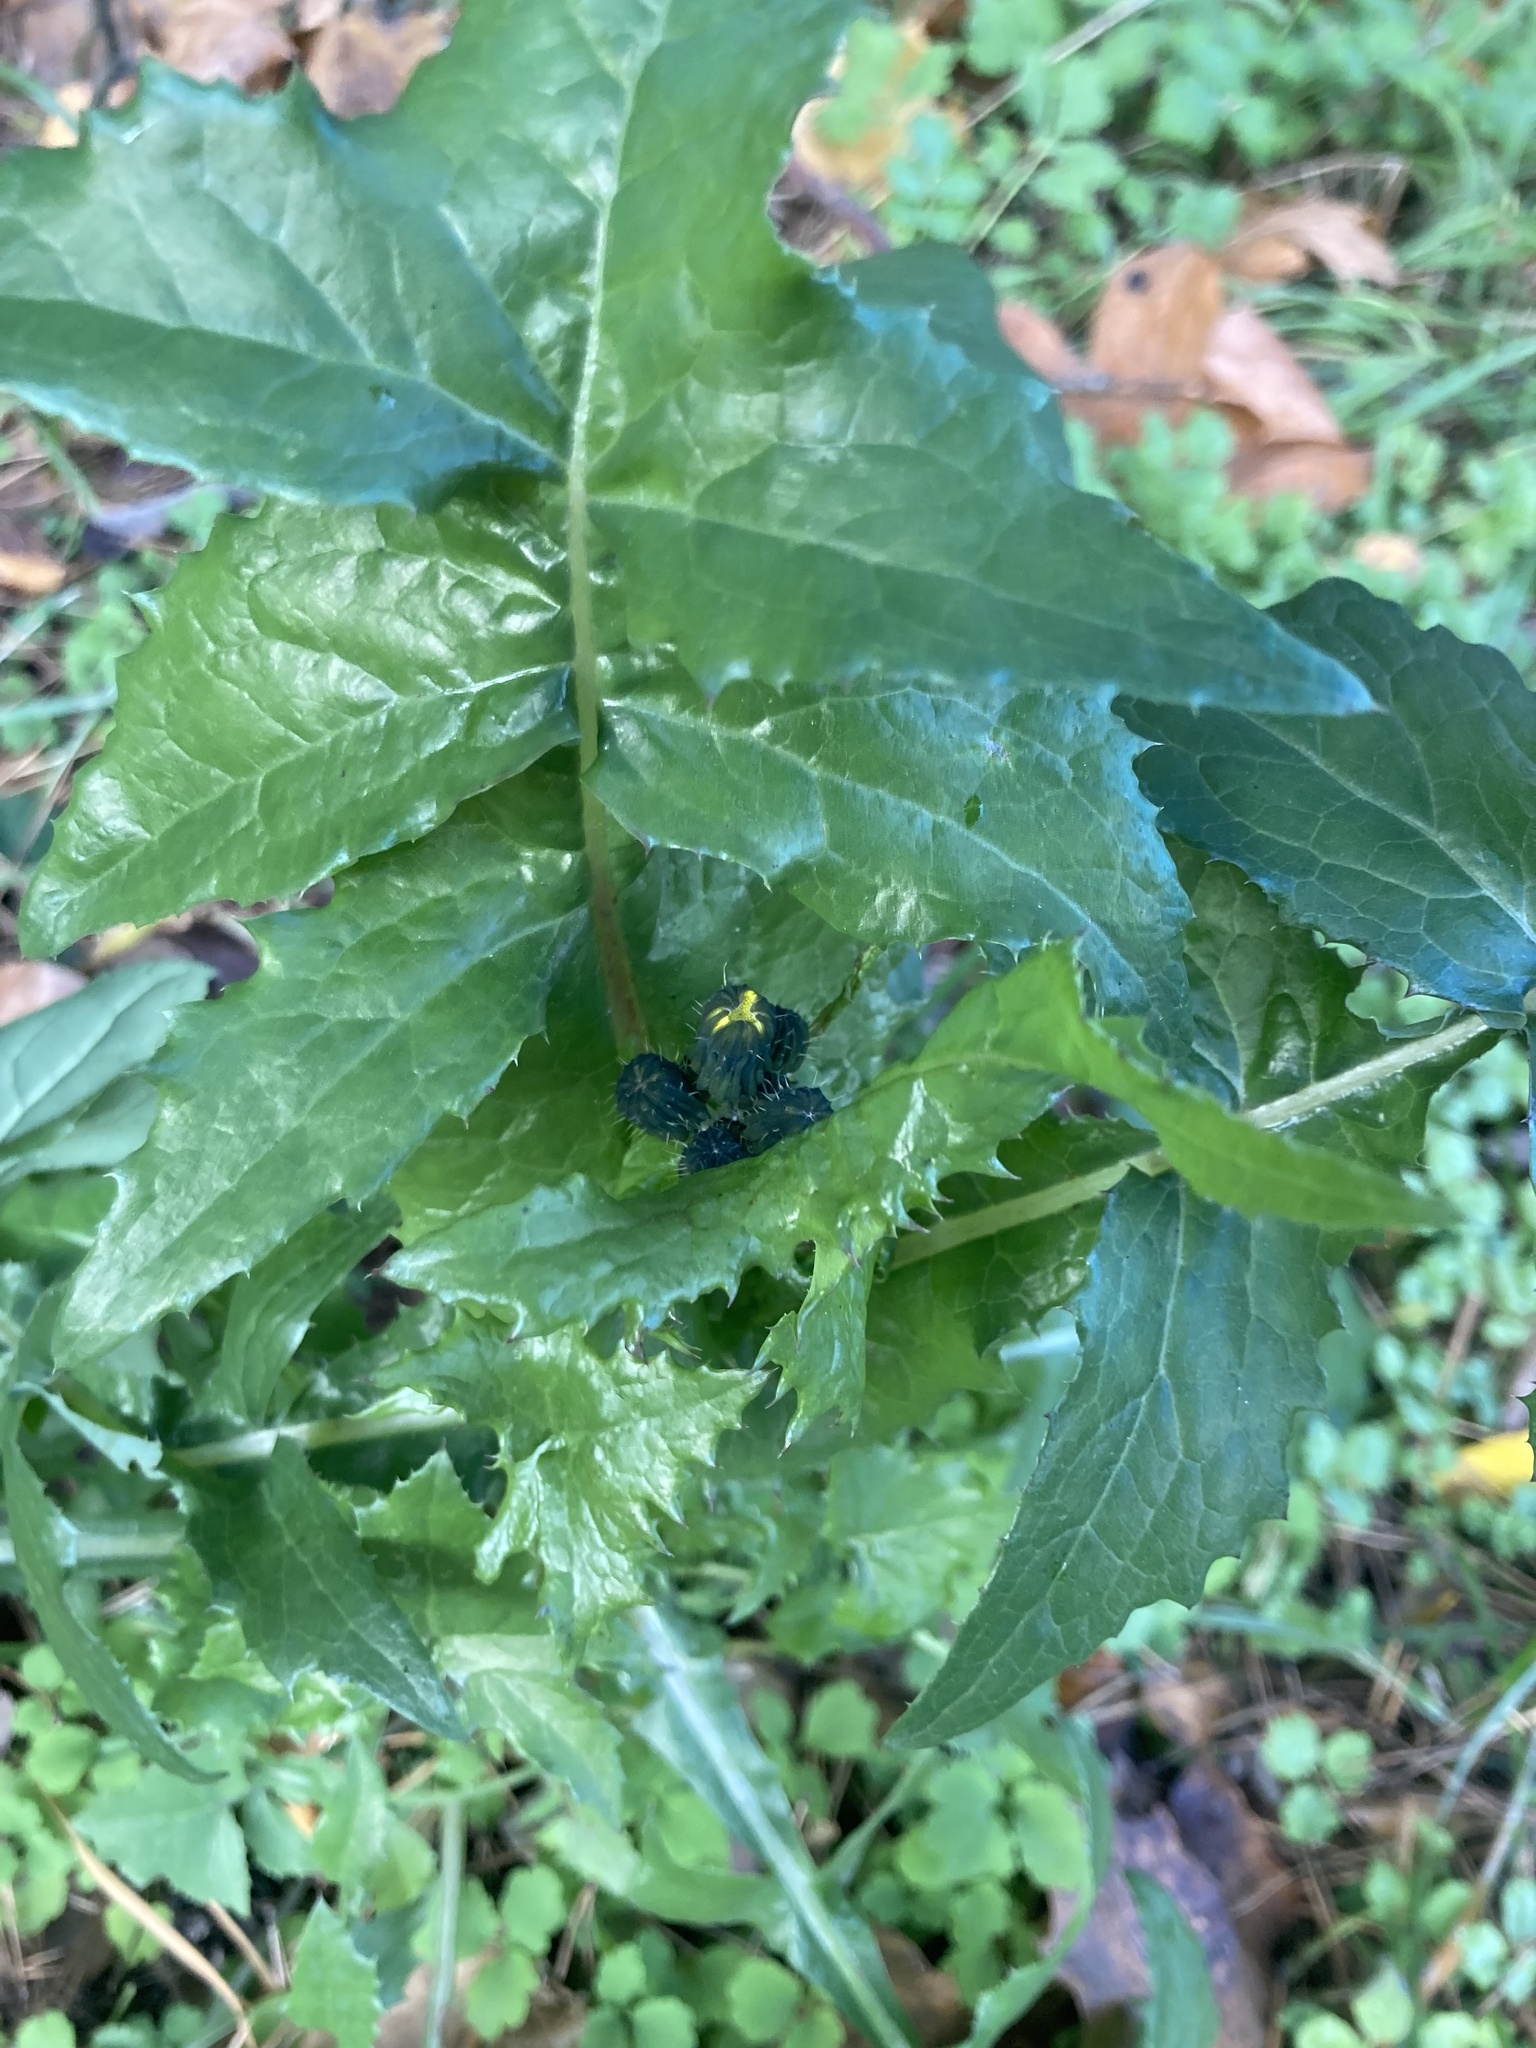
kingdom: Plantae
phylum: Tracheophyta
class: Magnoliopsida
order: Asterales
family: Asteraceae
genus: Sonchus
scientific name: Sonchus oleraceus
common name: Common sowthistle
